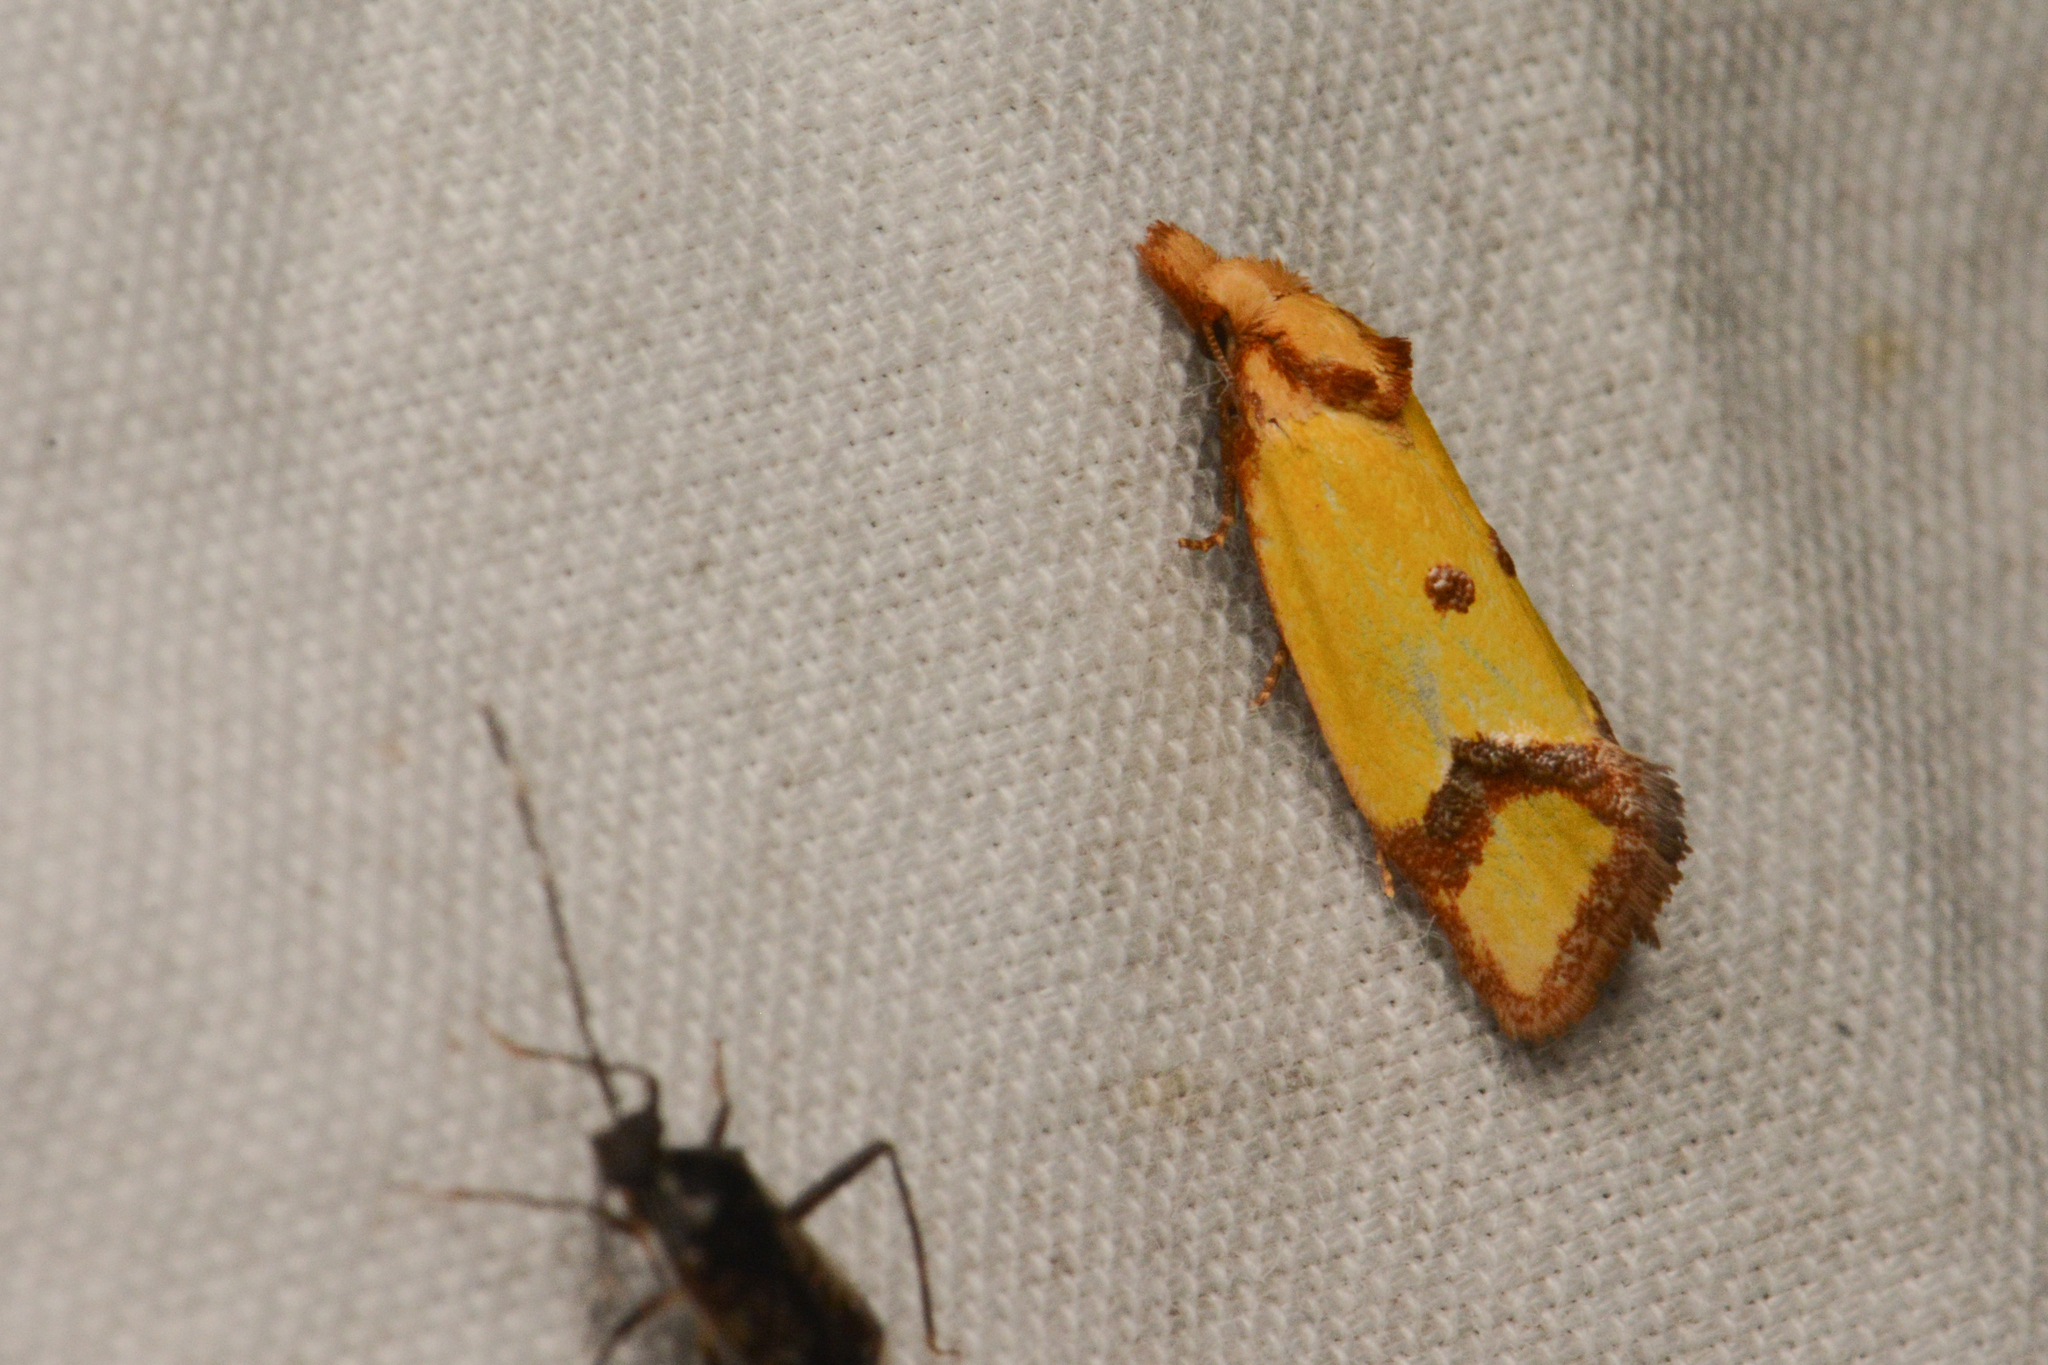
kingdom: Animalia
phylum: Arthropoda
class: Insecta
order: Lepidoptera
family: Tortricidae
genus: Agapeta
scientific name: Agapeta zoegana
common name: Sulfur knapweed root moth
